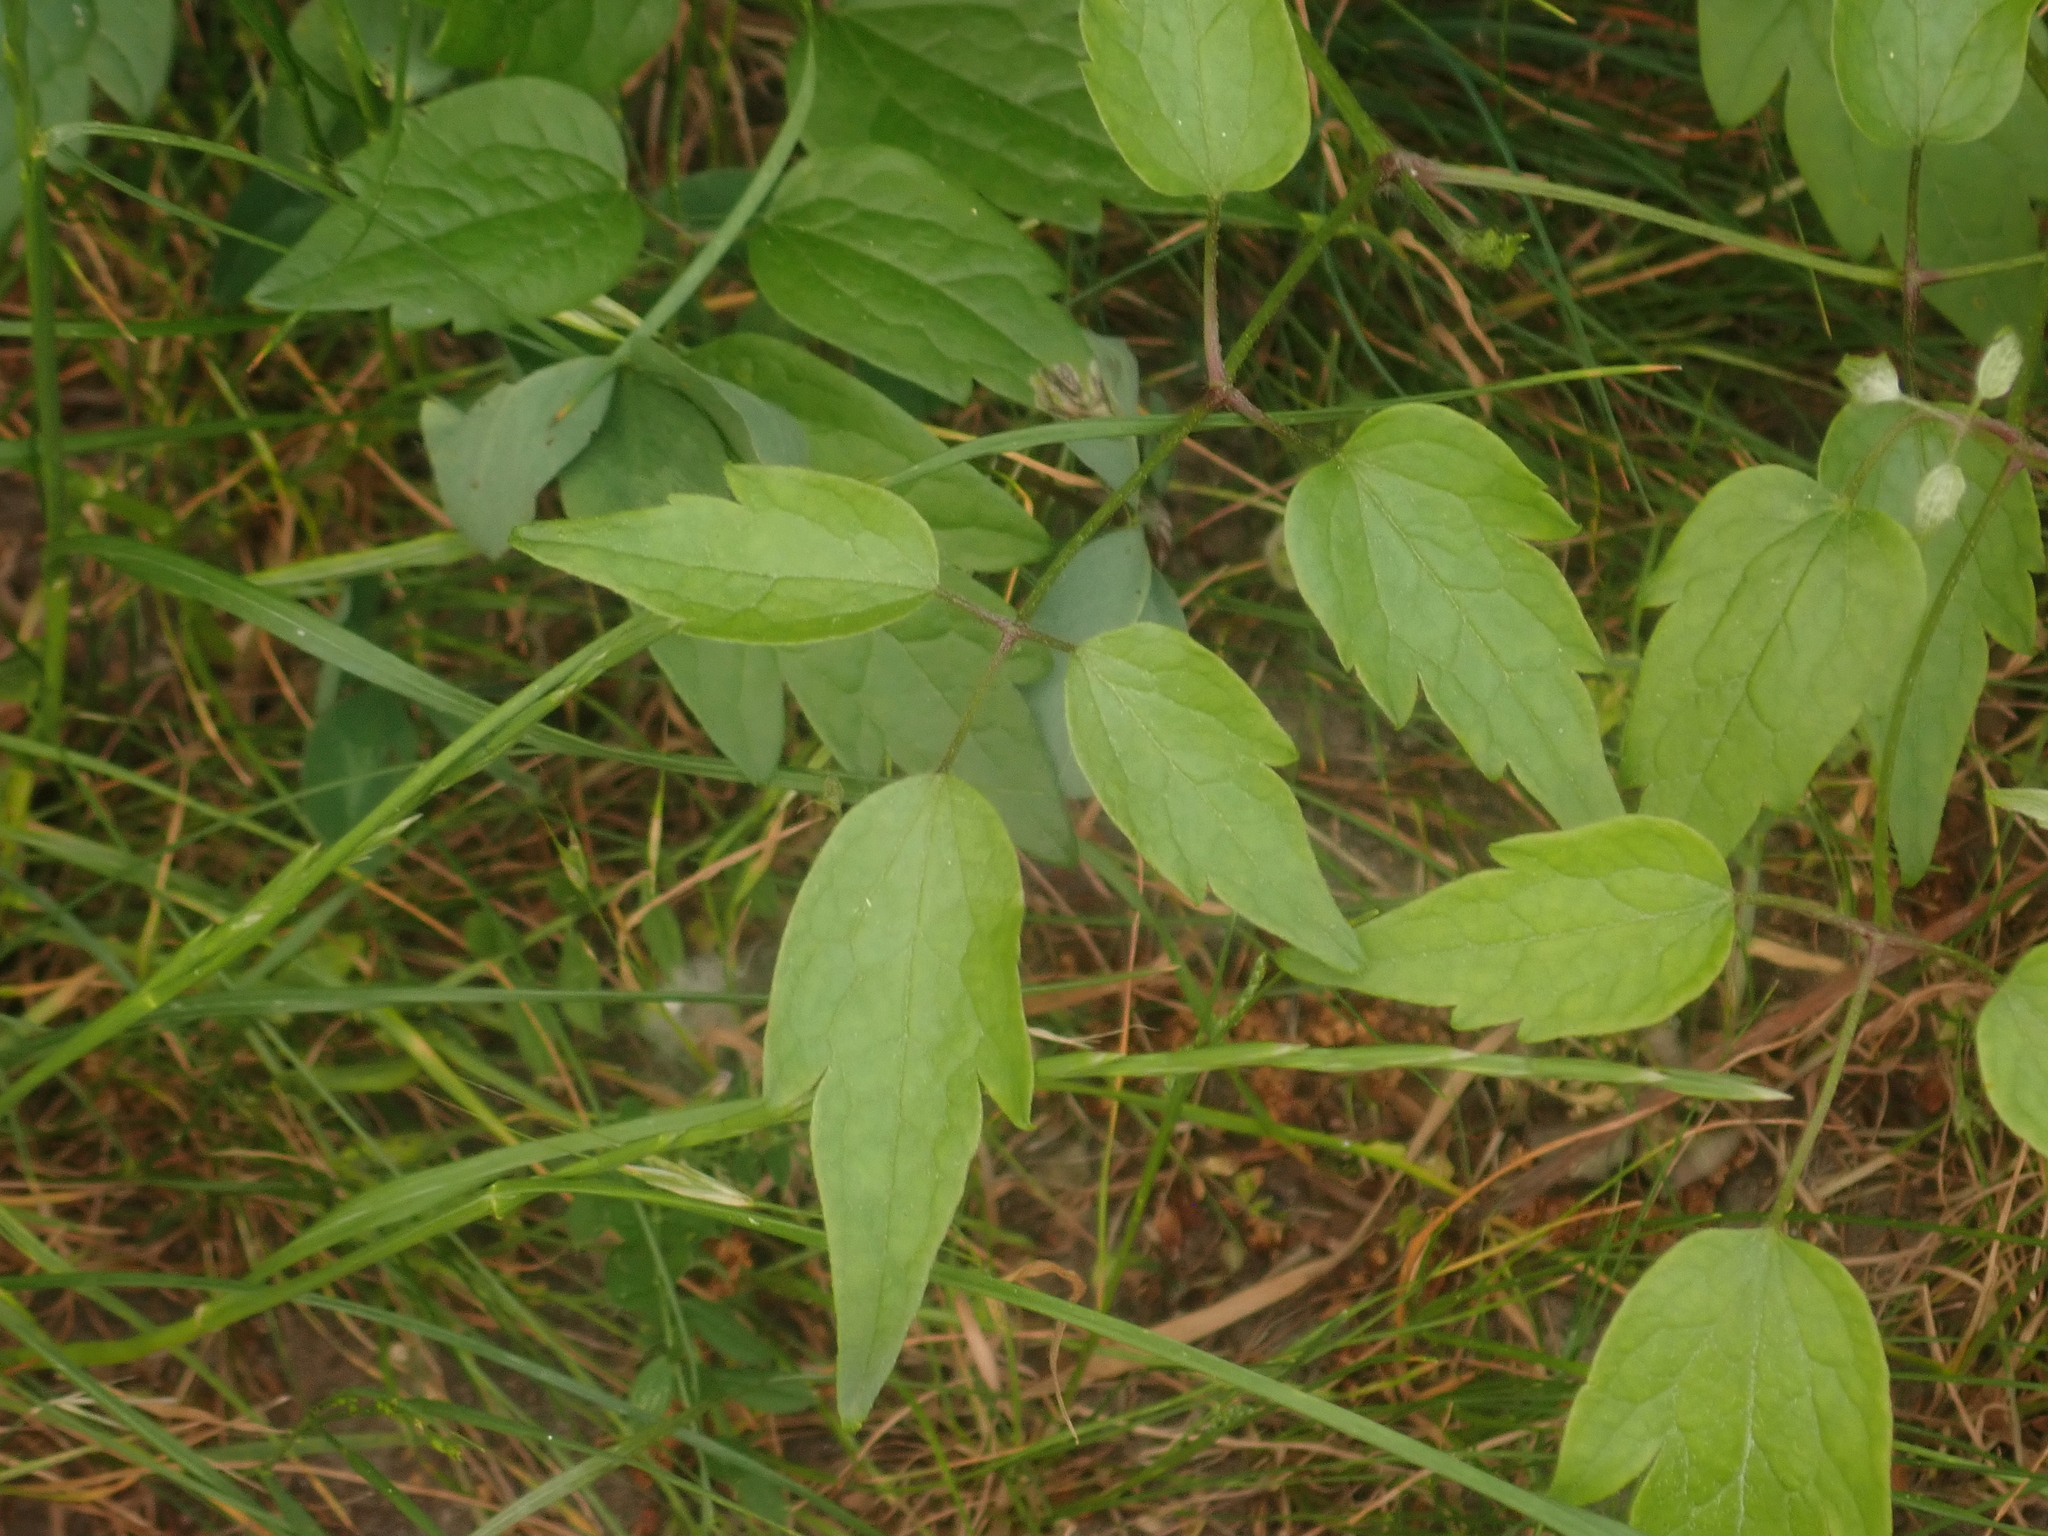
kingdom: Plantae
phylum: Tracheophyta
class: Magnoliopsida
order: Ranunculales
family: Ranunculaceae
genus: Clematis
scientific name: Clematis vitalba
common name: Evergreen clematis
